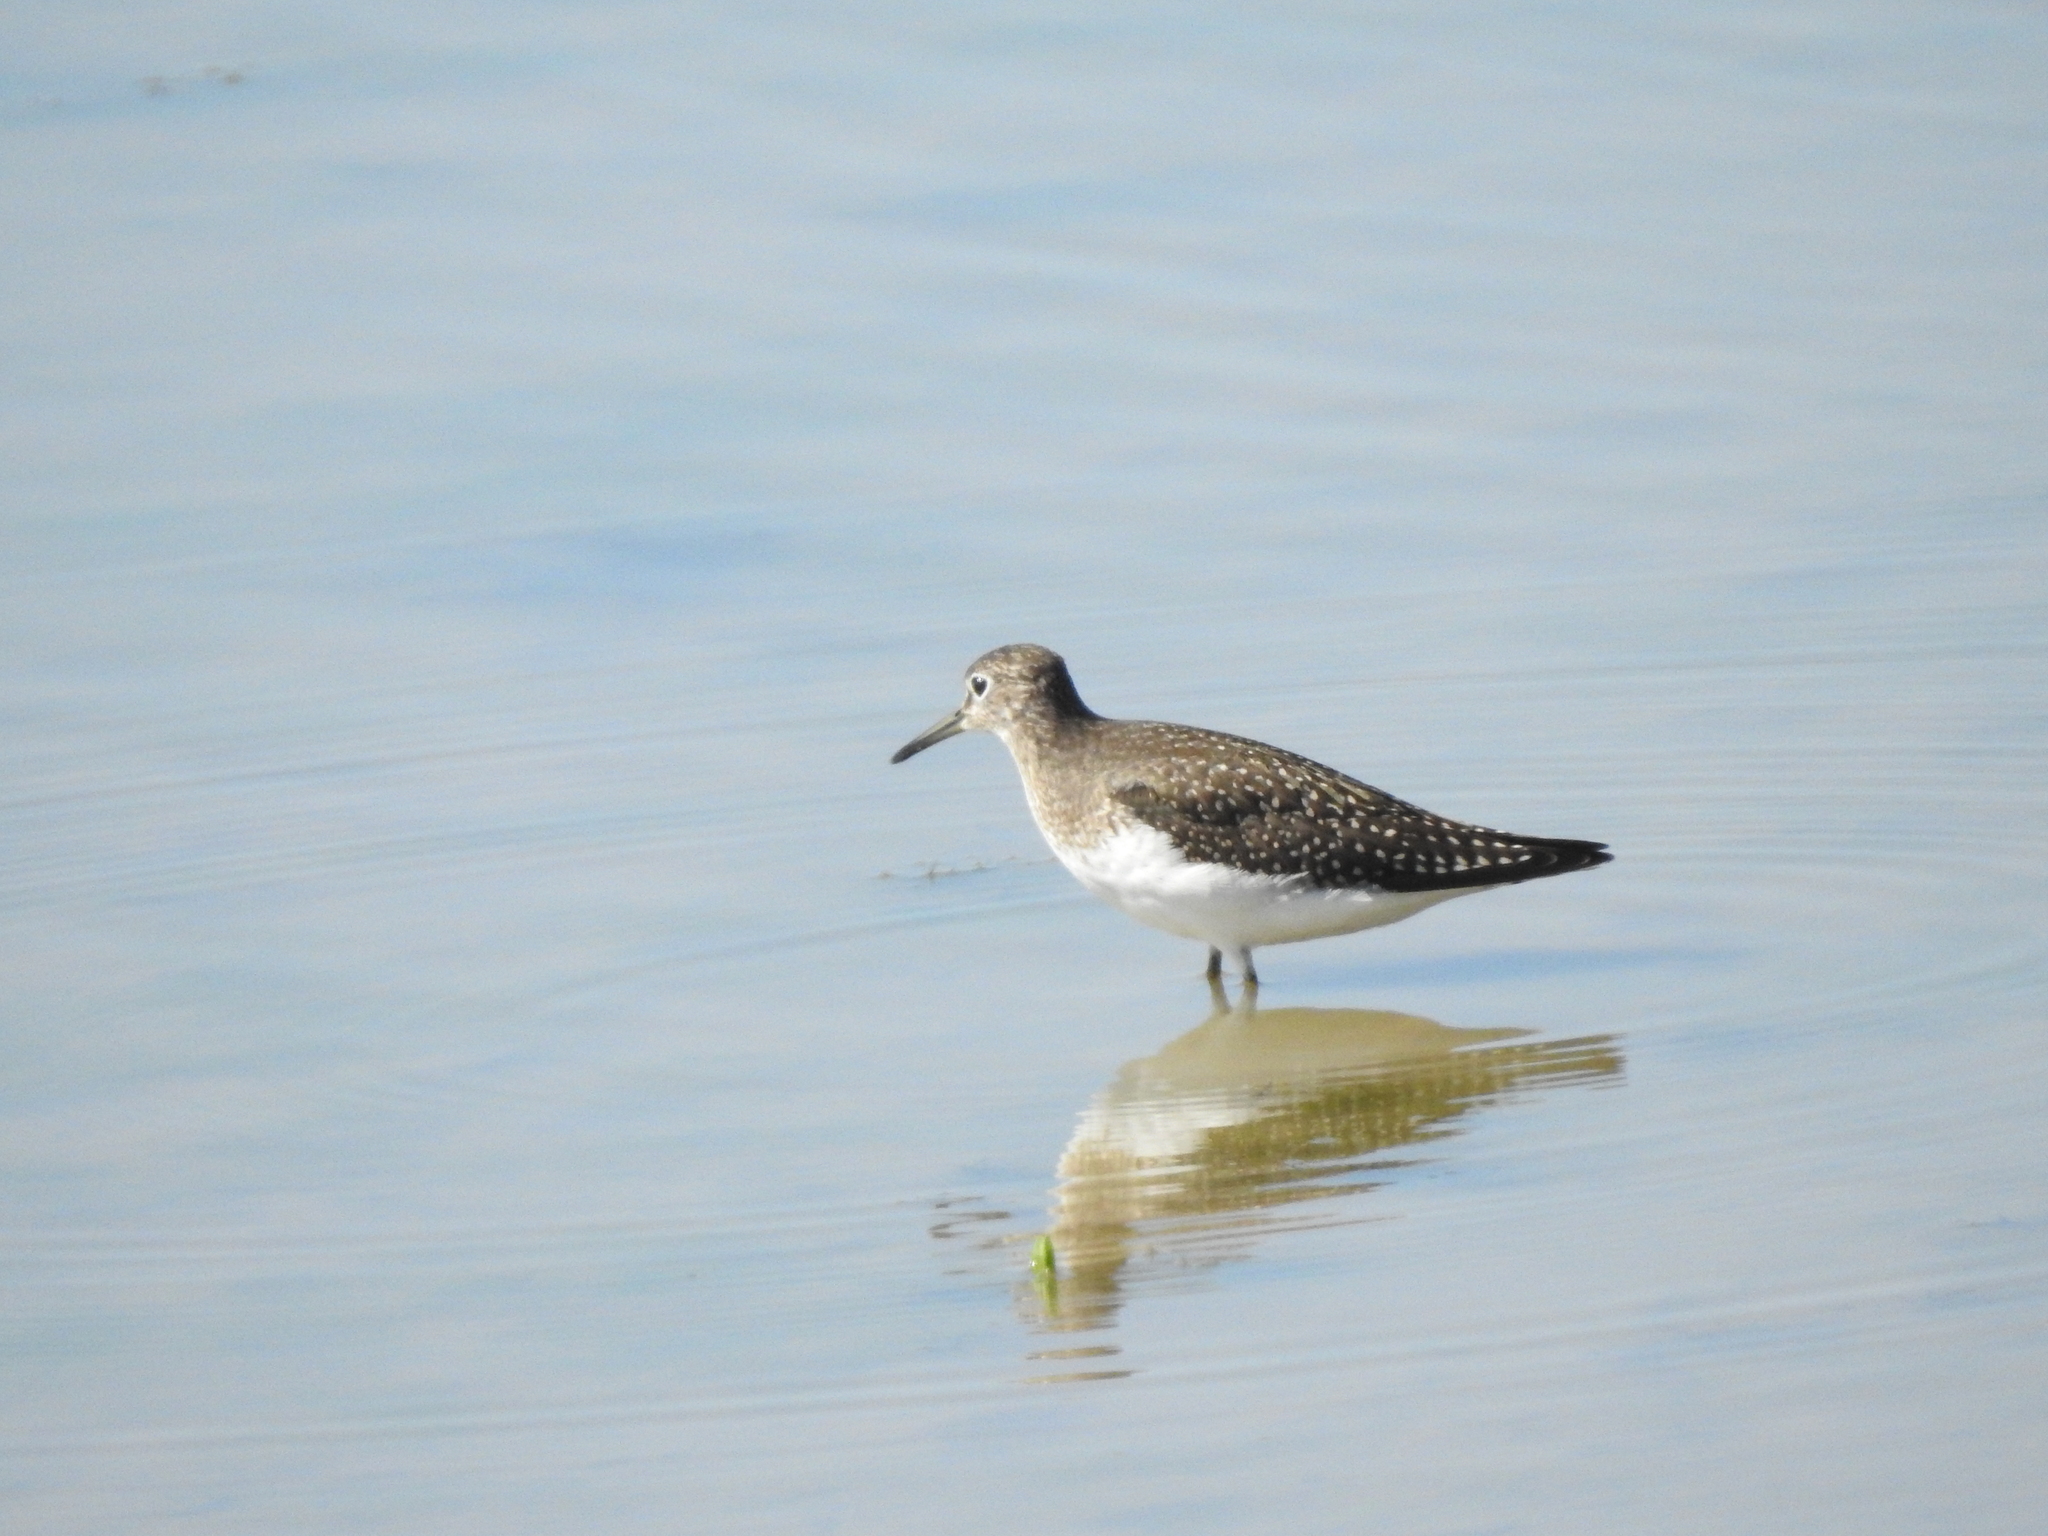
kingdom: Animalia
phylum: Chordata
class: Aves
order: Charadriiformes
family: Scolopacidae
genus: Tringa
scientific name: Tringa solitaria
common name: Solitary sandpiper
